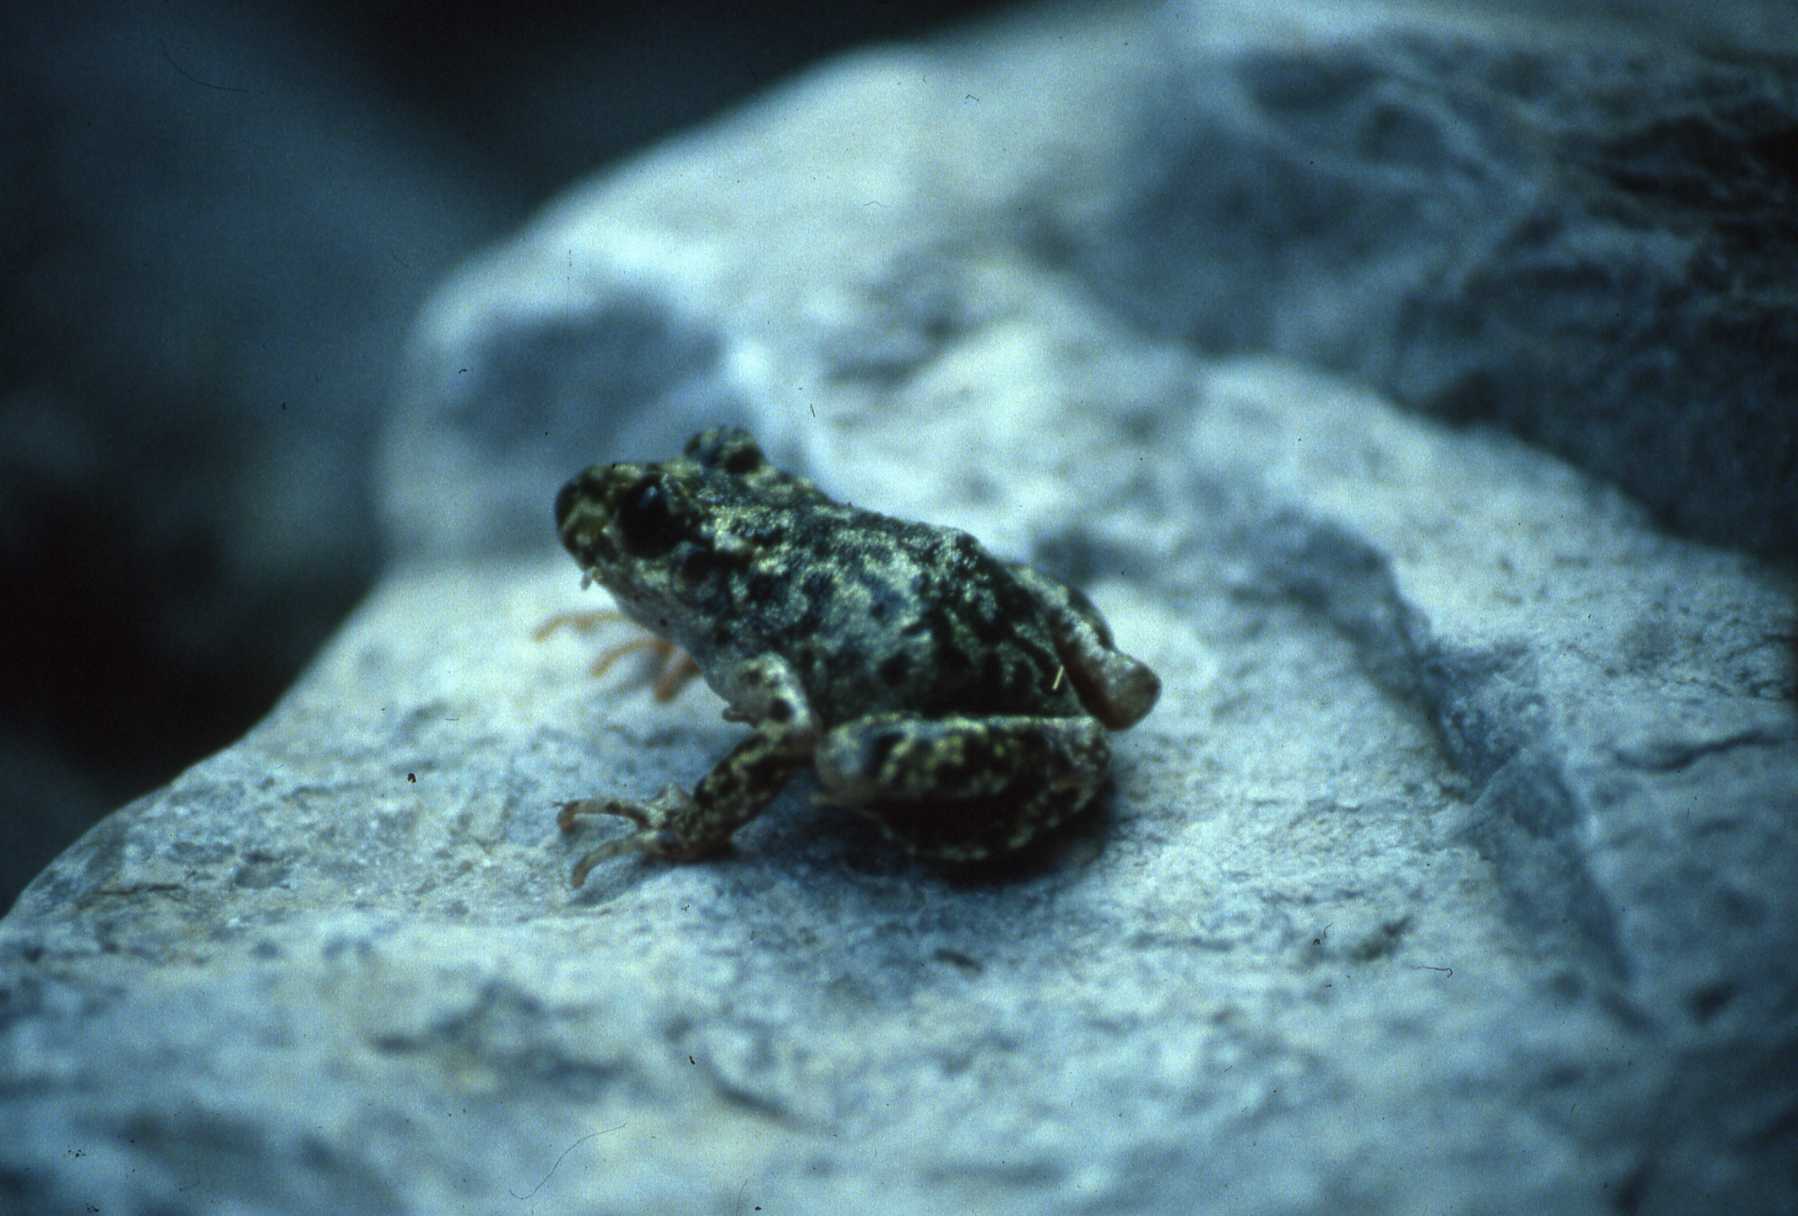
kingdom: Animalia
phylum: Chordata
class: Amphibia
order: Anura
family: Alytidae
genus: Alytes
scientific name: Alytes muletensis
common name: Majorca midwife toad
